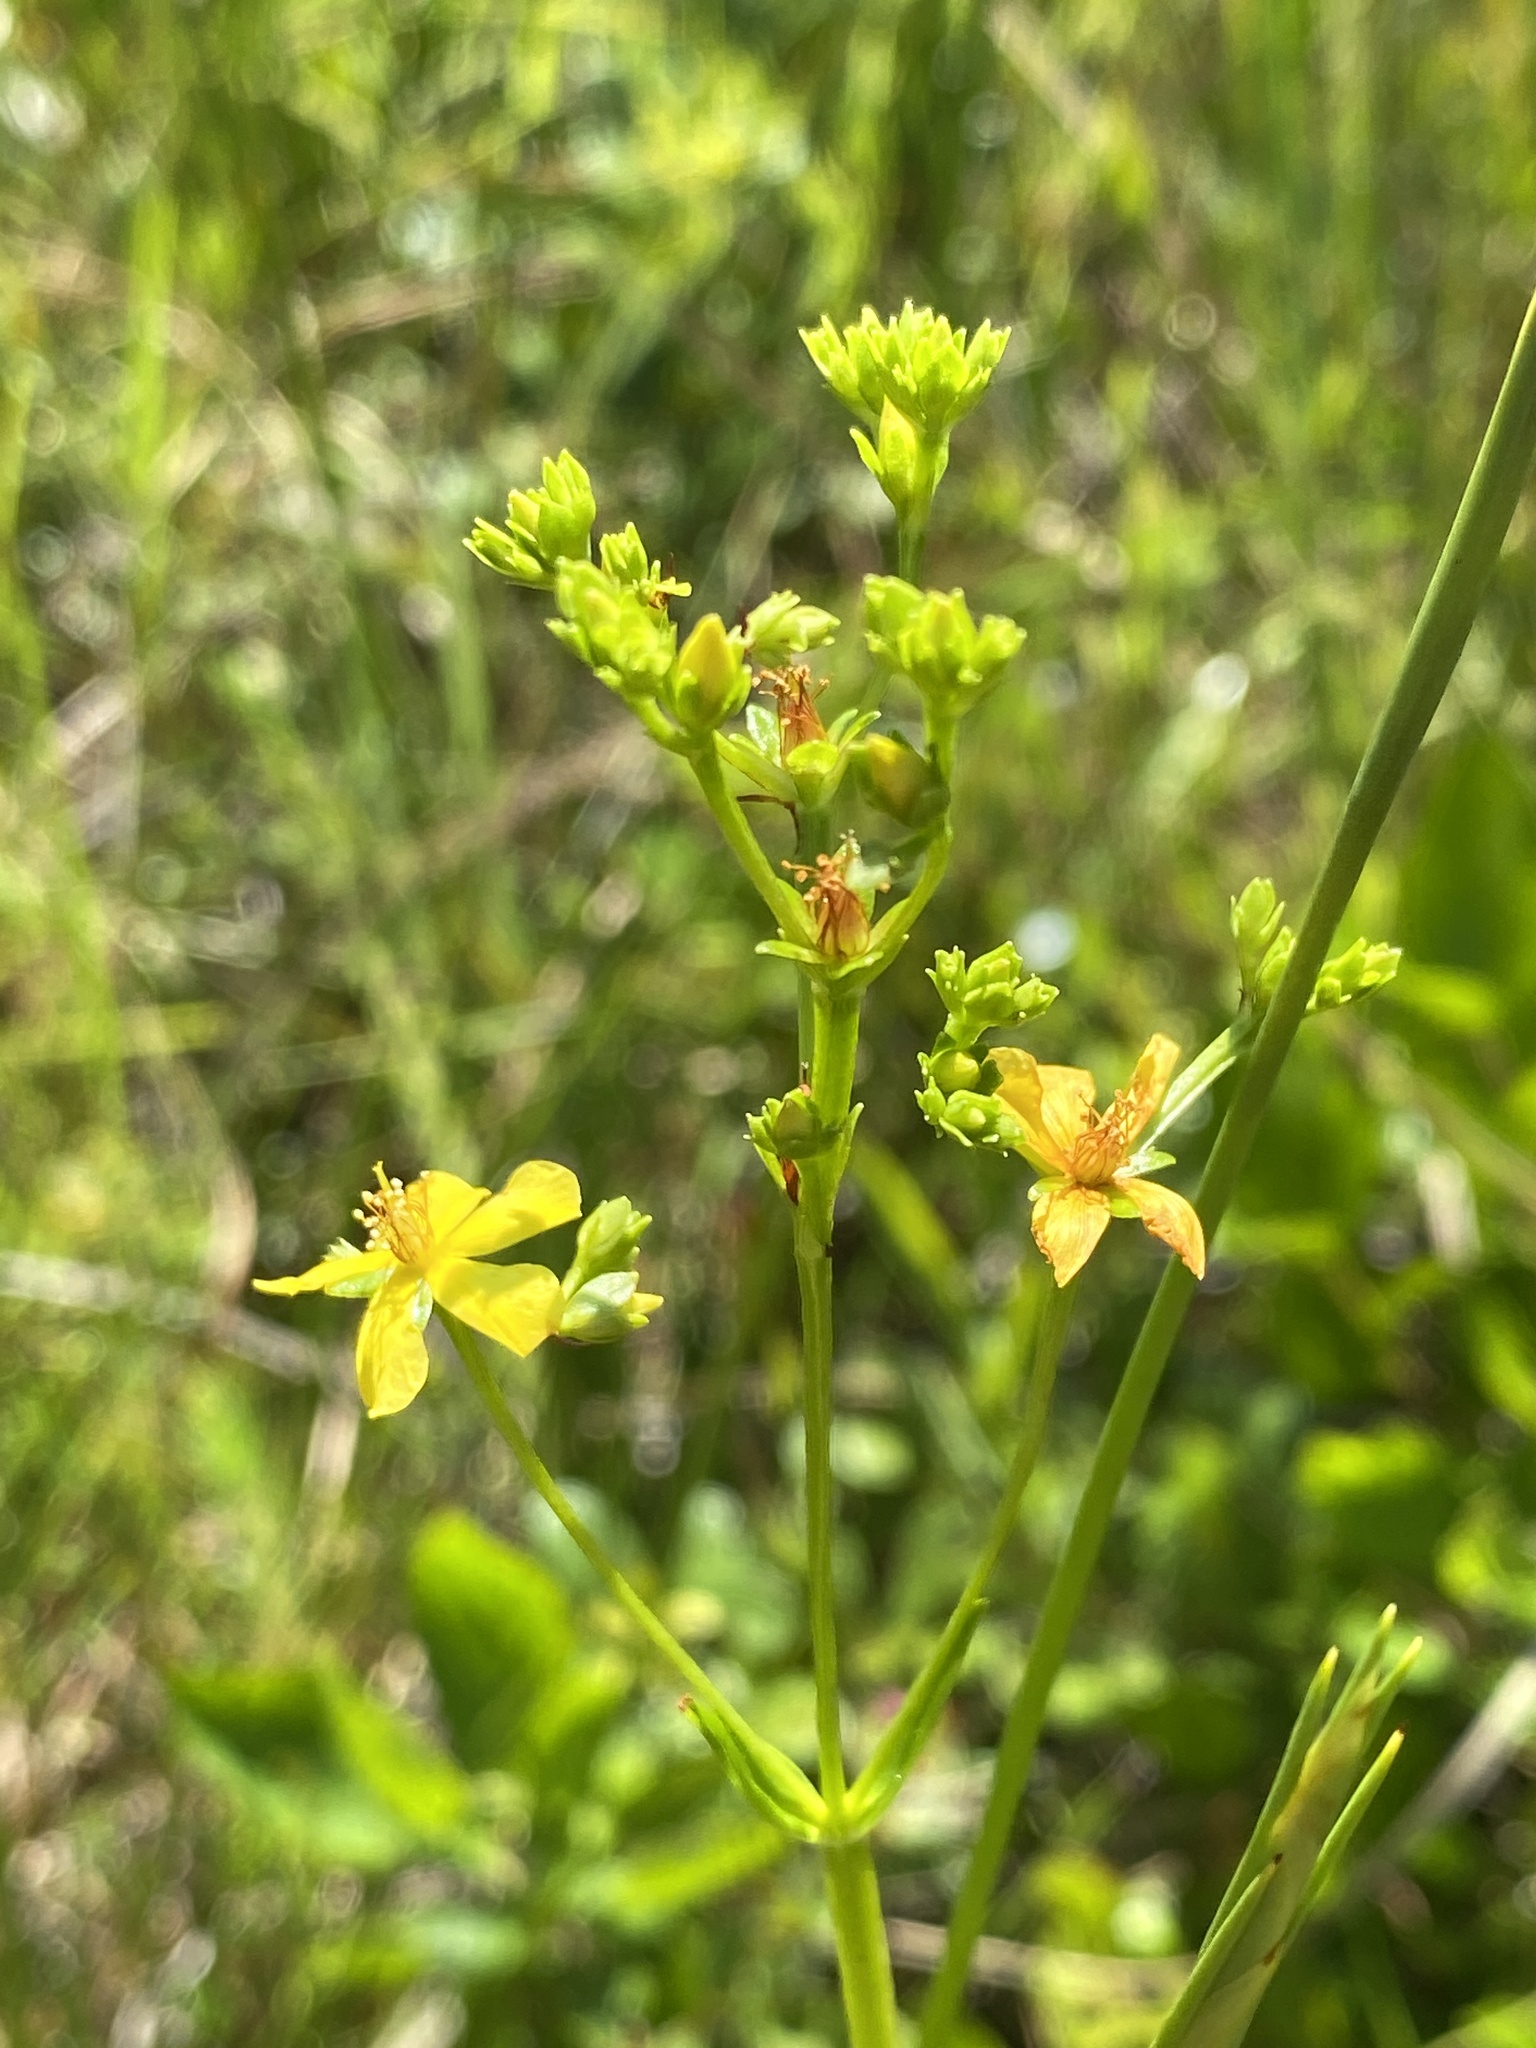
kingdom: Plantae
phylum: Tracheophyta
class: Magnoliopsida
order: Malpighiales
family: Hypericaceae
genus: Hypericum
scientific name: Hypericum cistifolium
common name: Round-pod st. john's-wort
